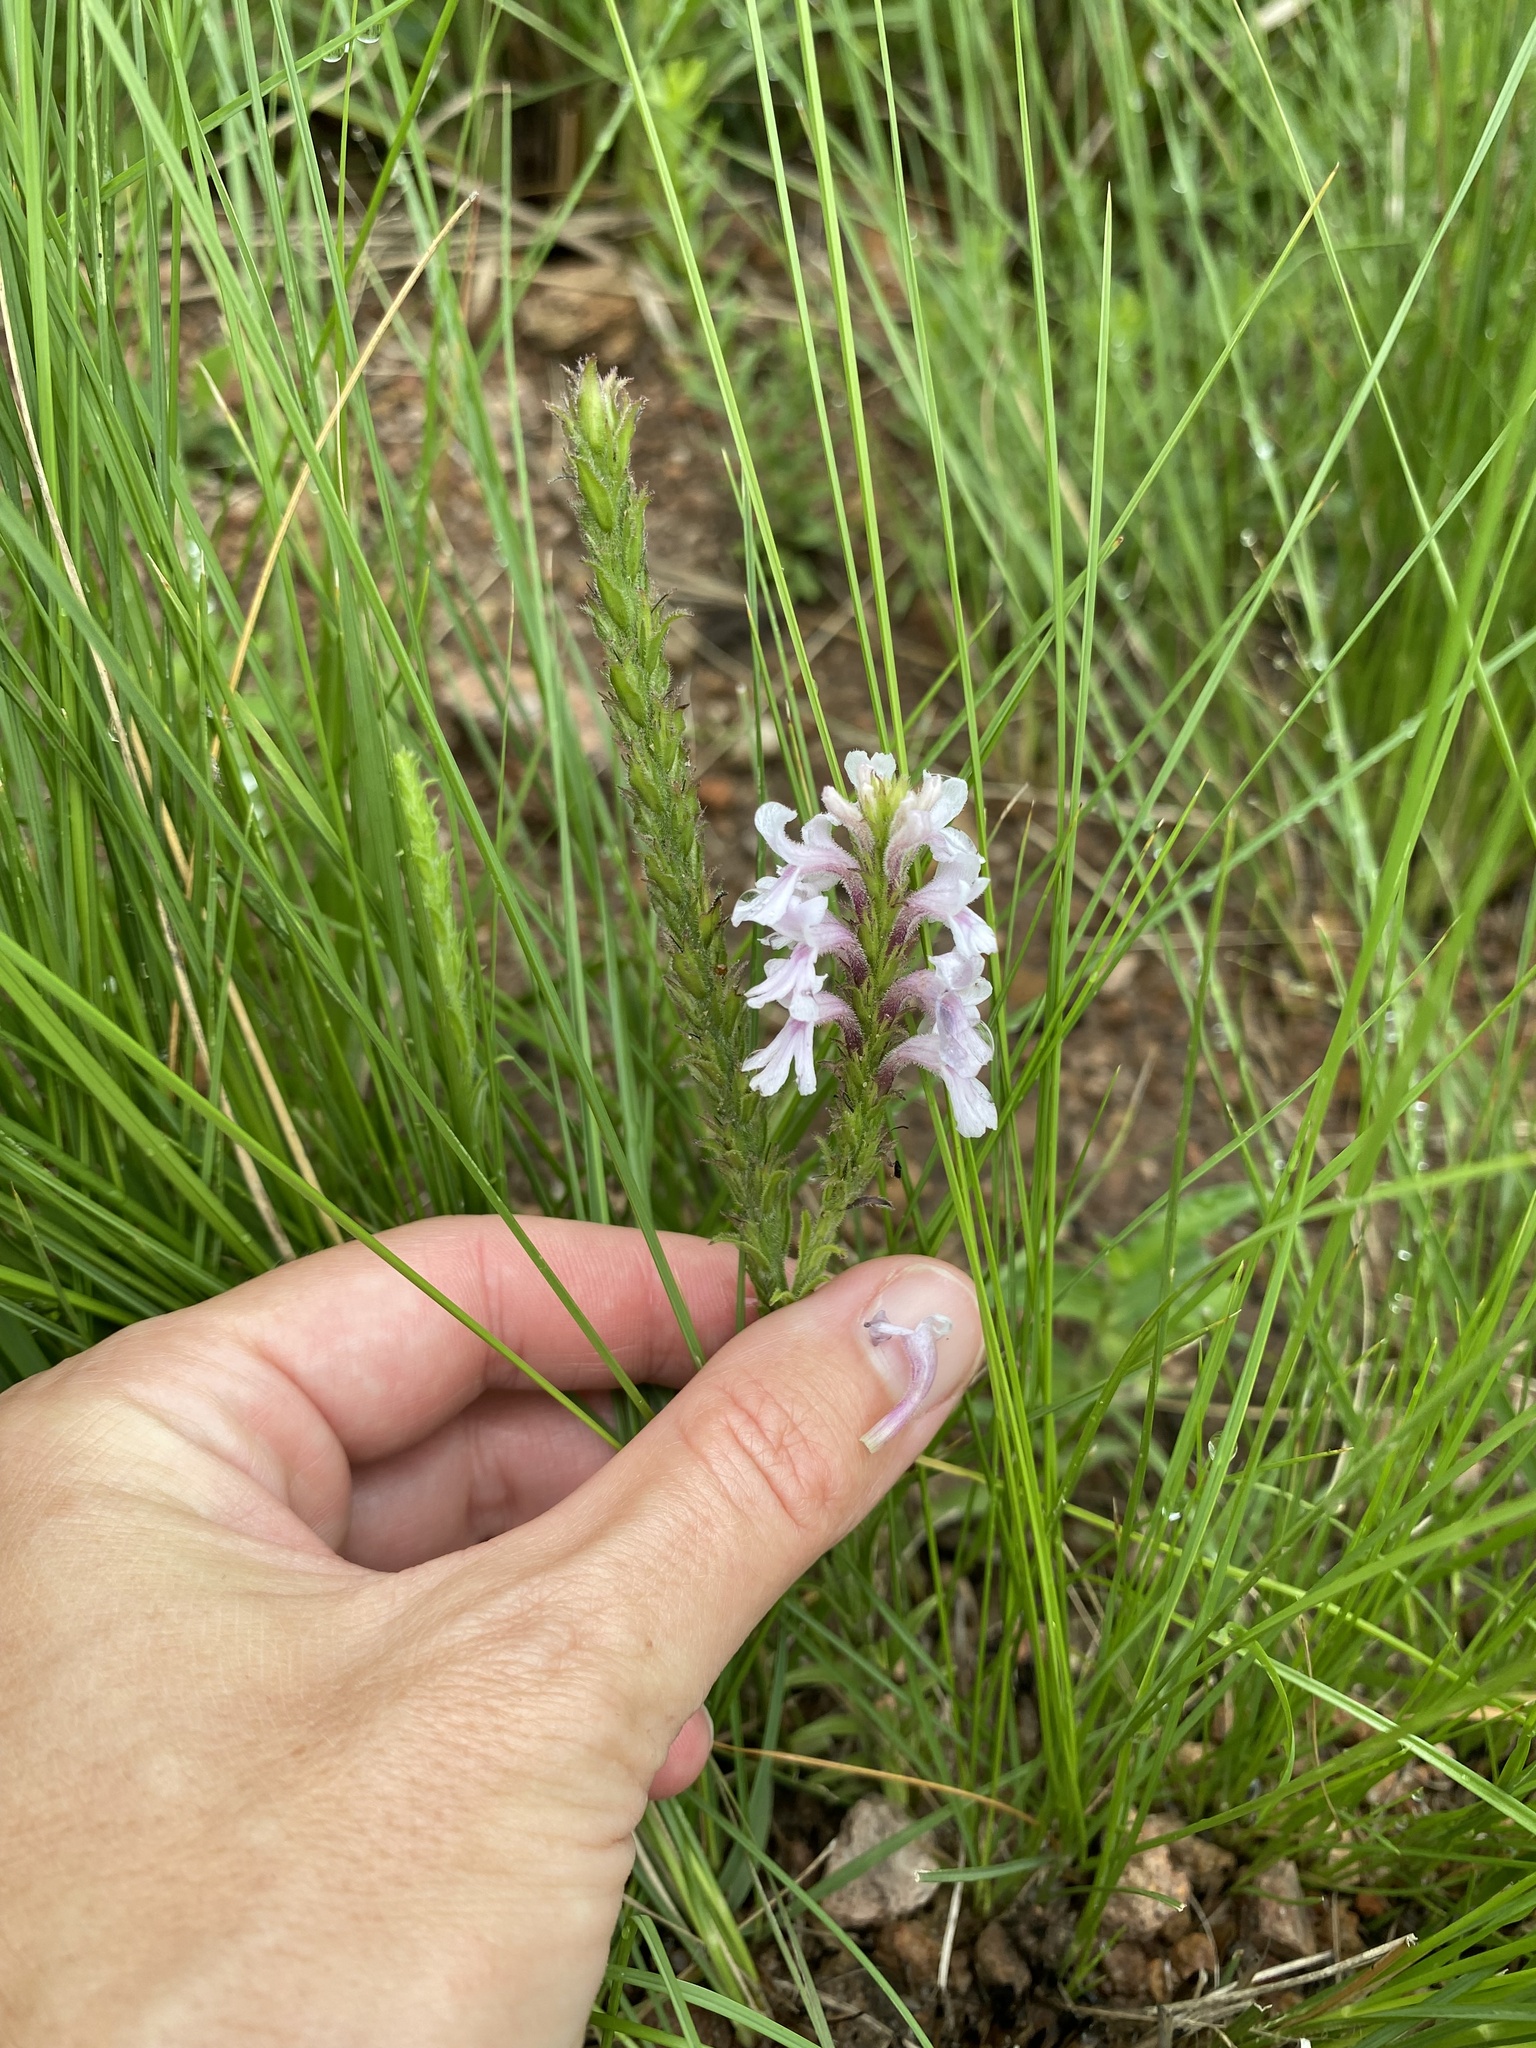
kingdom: Plantae
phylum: Tracheophyta
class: Magnoliopsida
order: Lamiales
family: Orobanchaceae
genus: Striga
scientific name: Striga bilabiata
